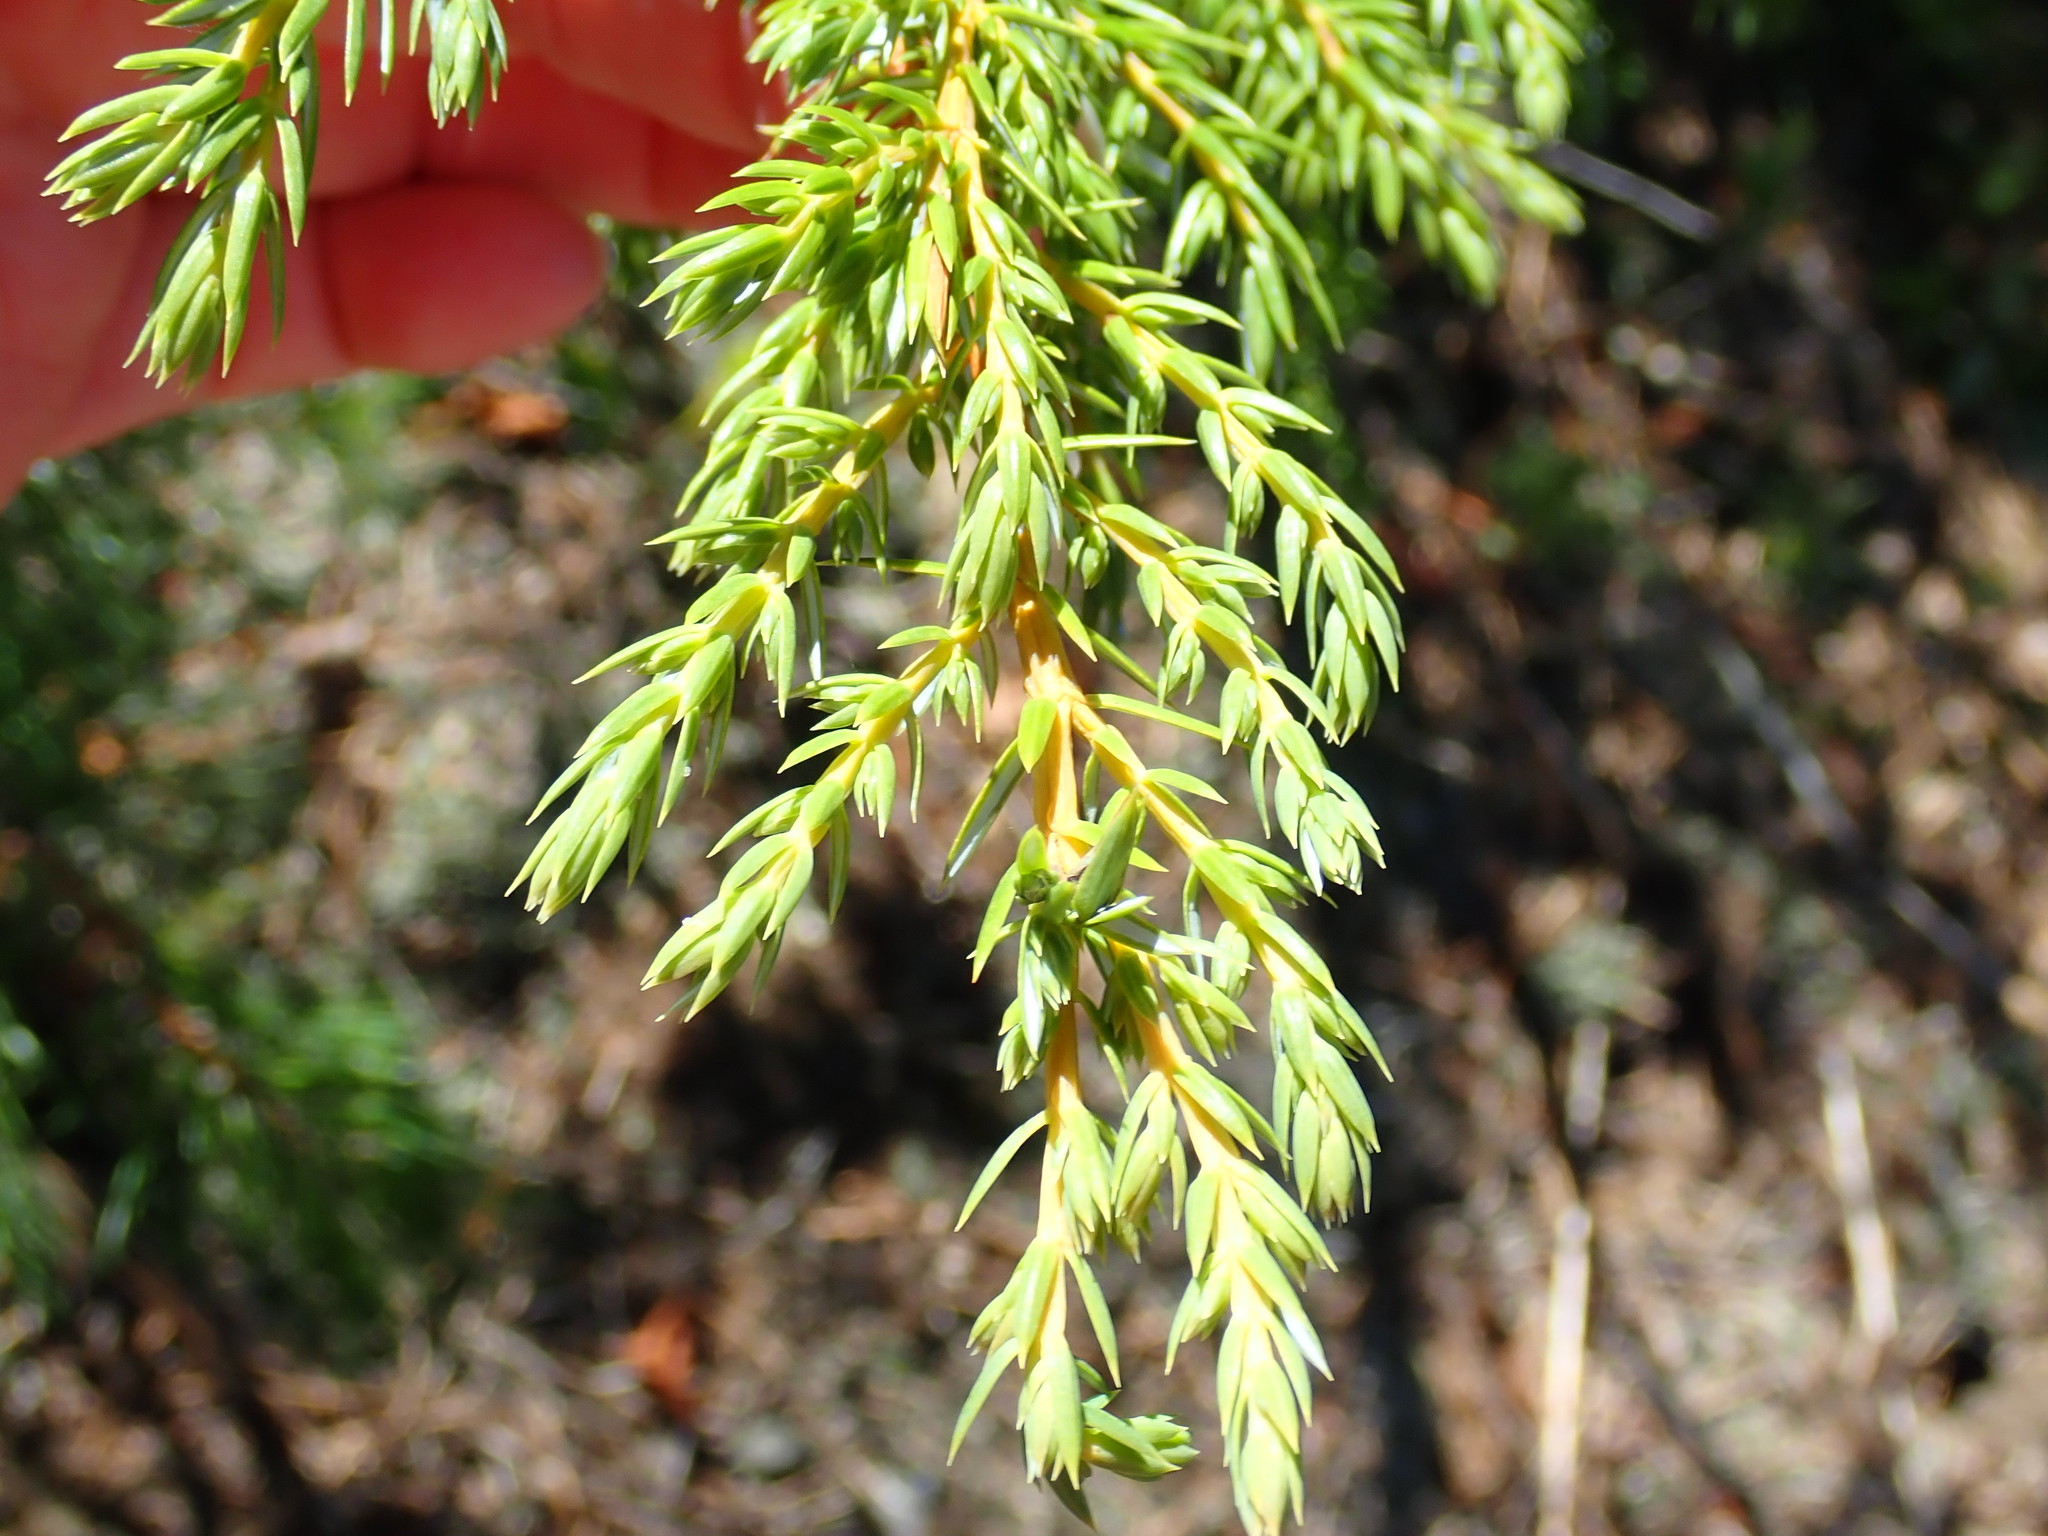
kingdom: Plantae
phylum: Tracheophyta
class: Pinopsida
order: Pinales
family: Cupressaceae
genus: Juniperus
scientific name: Juniperus communis
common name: Common juniper
